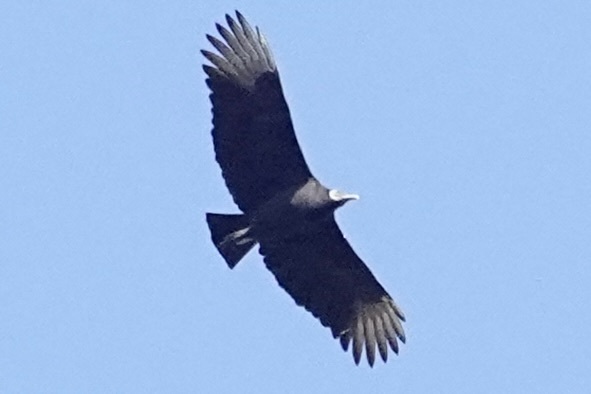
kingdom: Animalia
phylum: Chordata
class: Aves
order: Accipitriformes
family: Cathartidae
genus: Coragyps
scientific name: Coragyps atratus
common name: Black vulture
